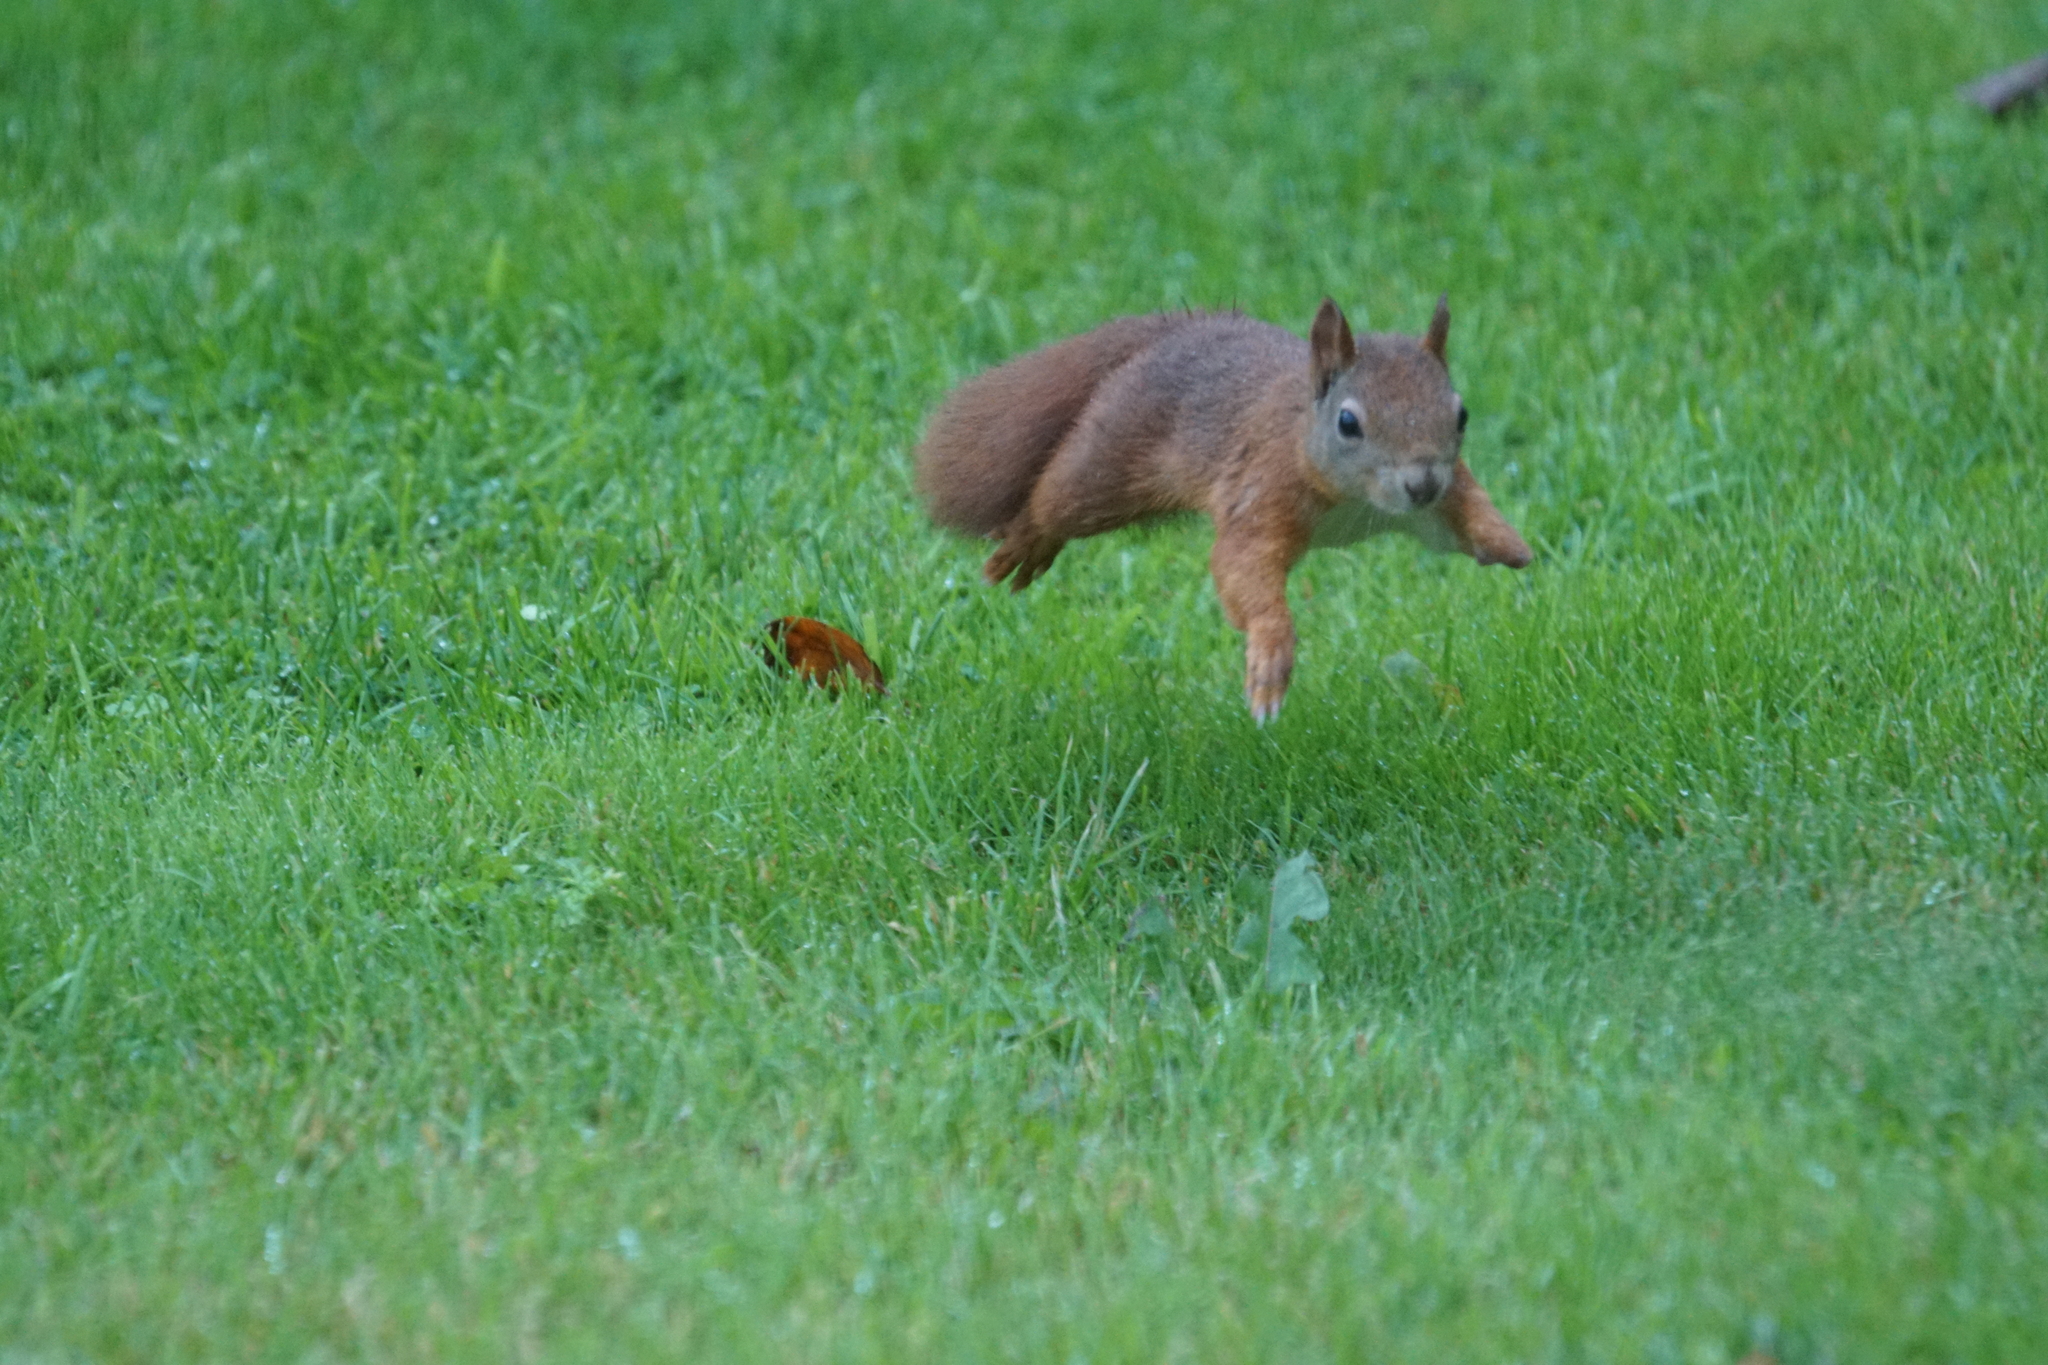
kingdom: Animalia
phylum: Chordata
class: Mammalia
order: Rodentia
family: Sciuridae
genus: Sciurus
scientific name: Sciurus vulgaris
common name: Eurasian red squirrel
